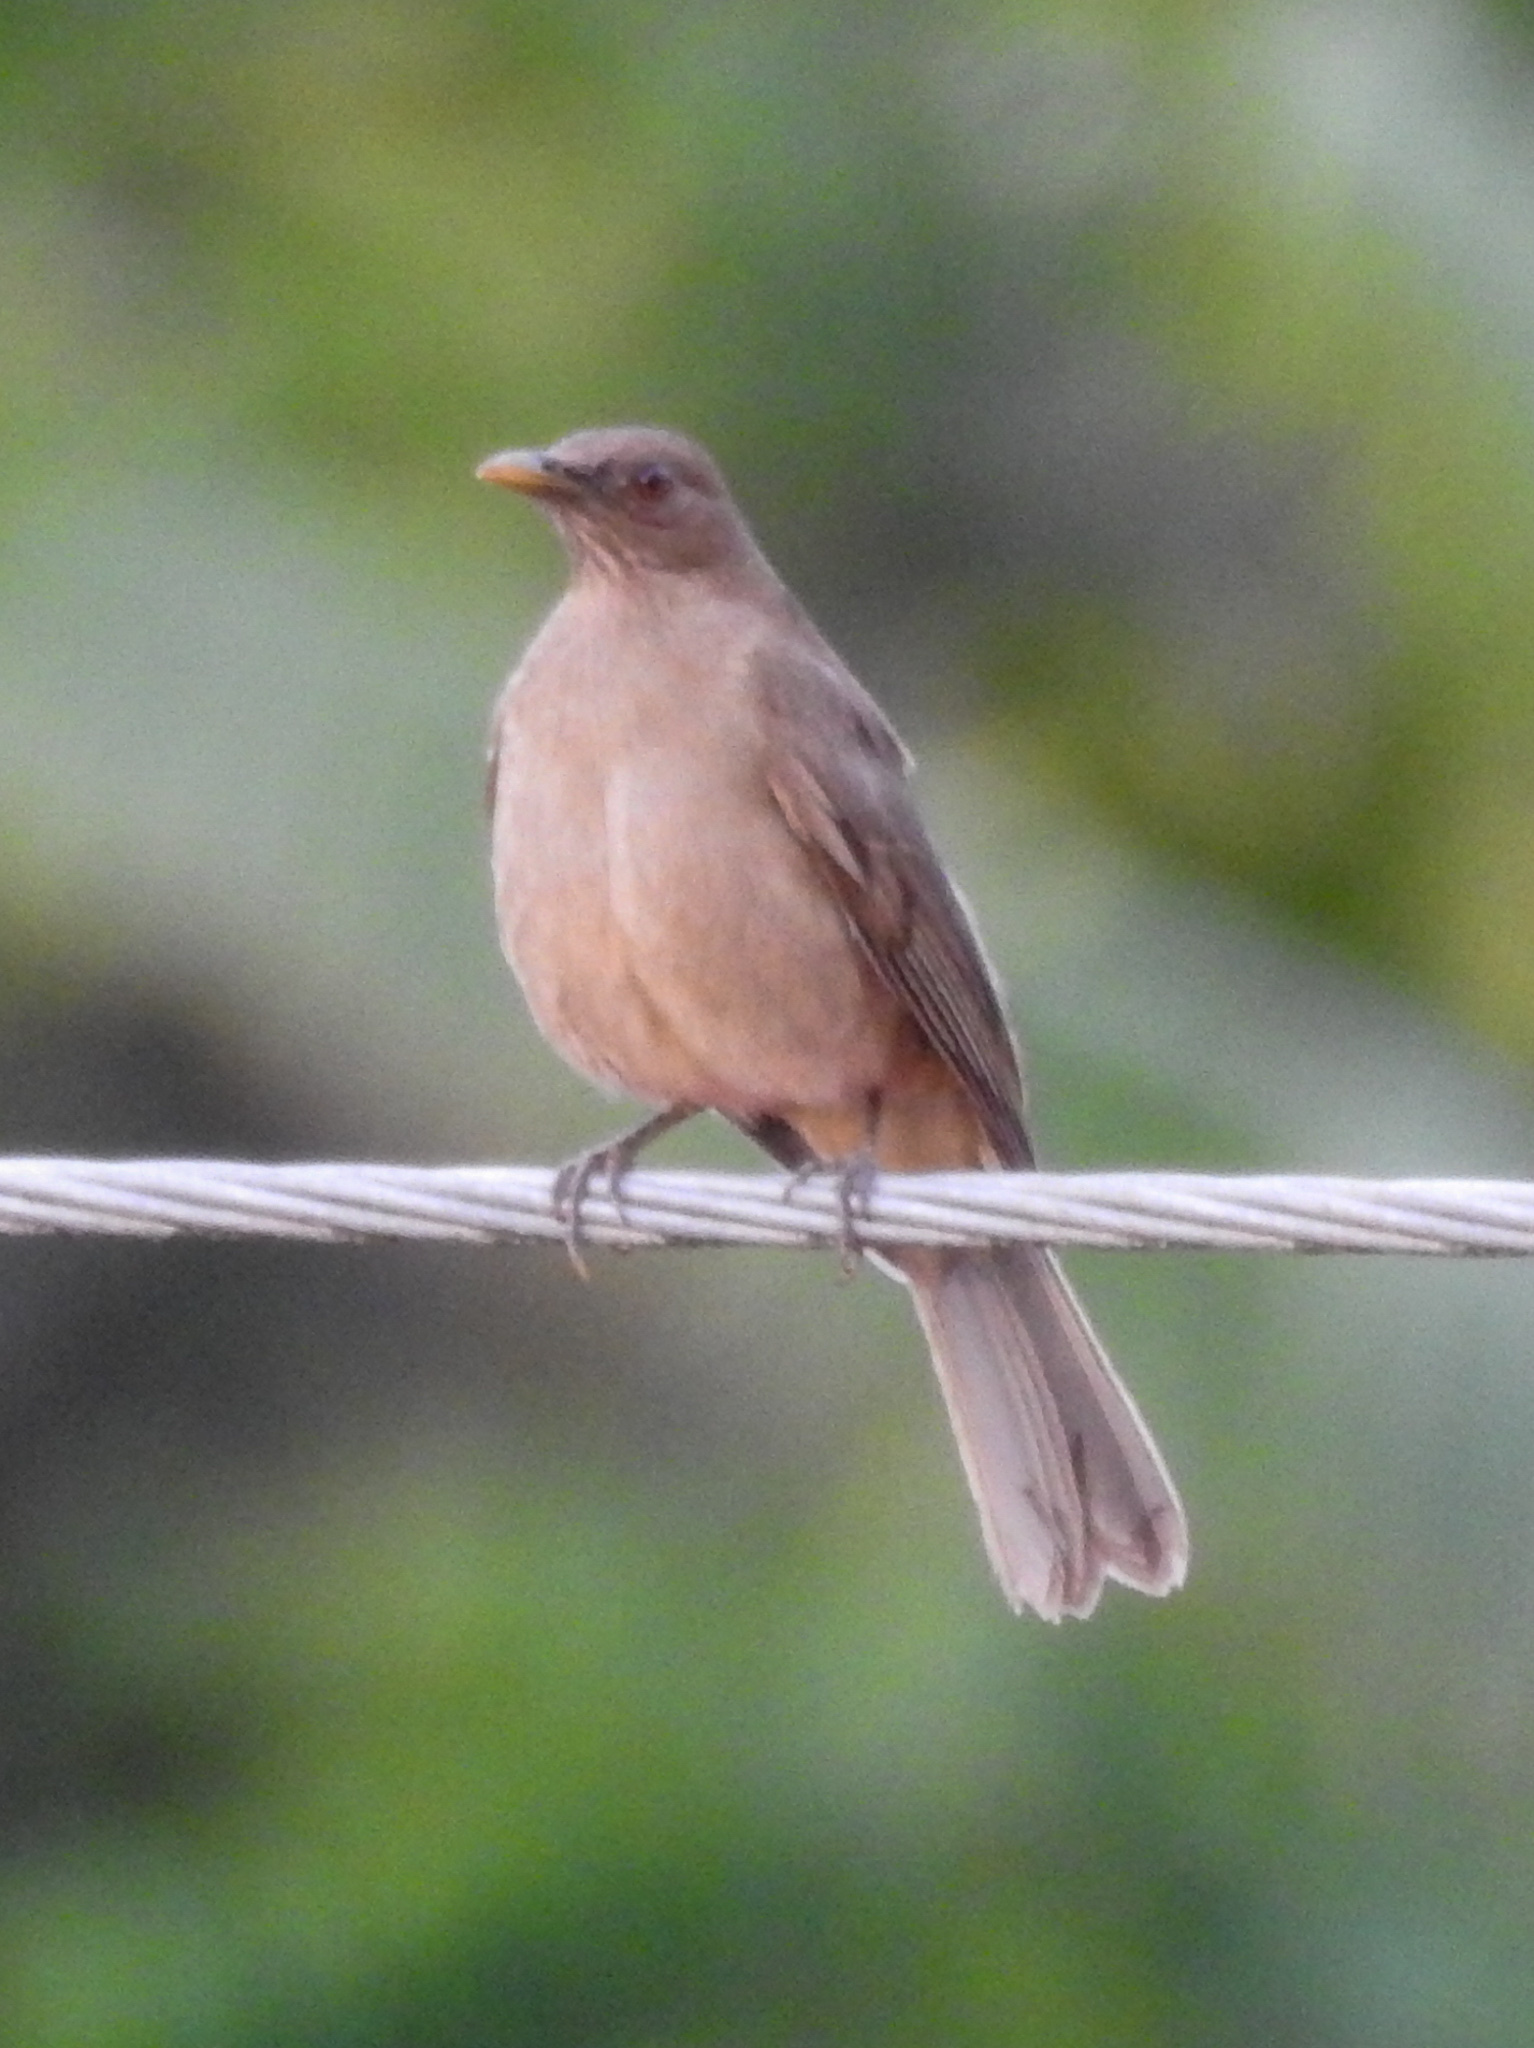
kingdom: Animalia
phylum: Chordata
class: Aves
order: Passeriformes
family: Turdidae
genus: Turdus
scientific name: Turdus grayi
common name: Clay-colored thrush
